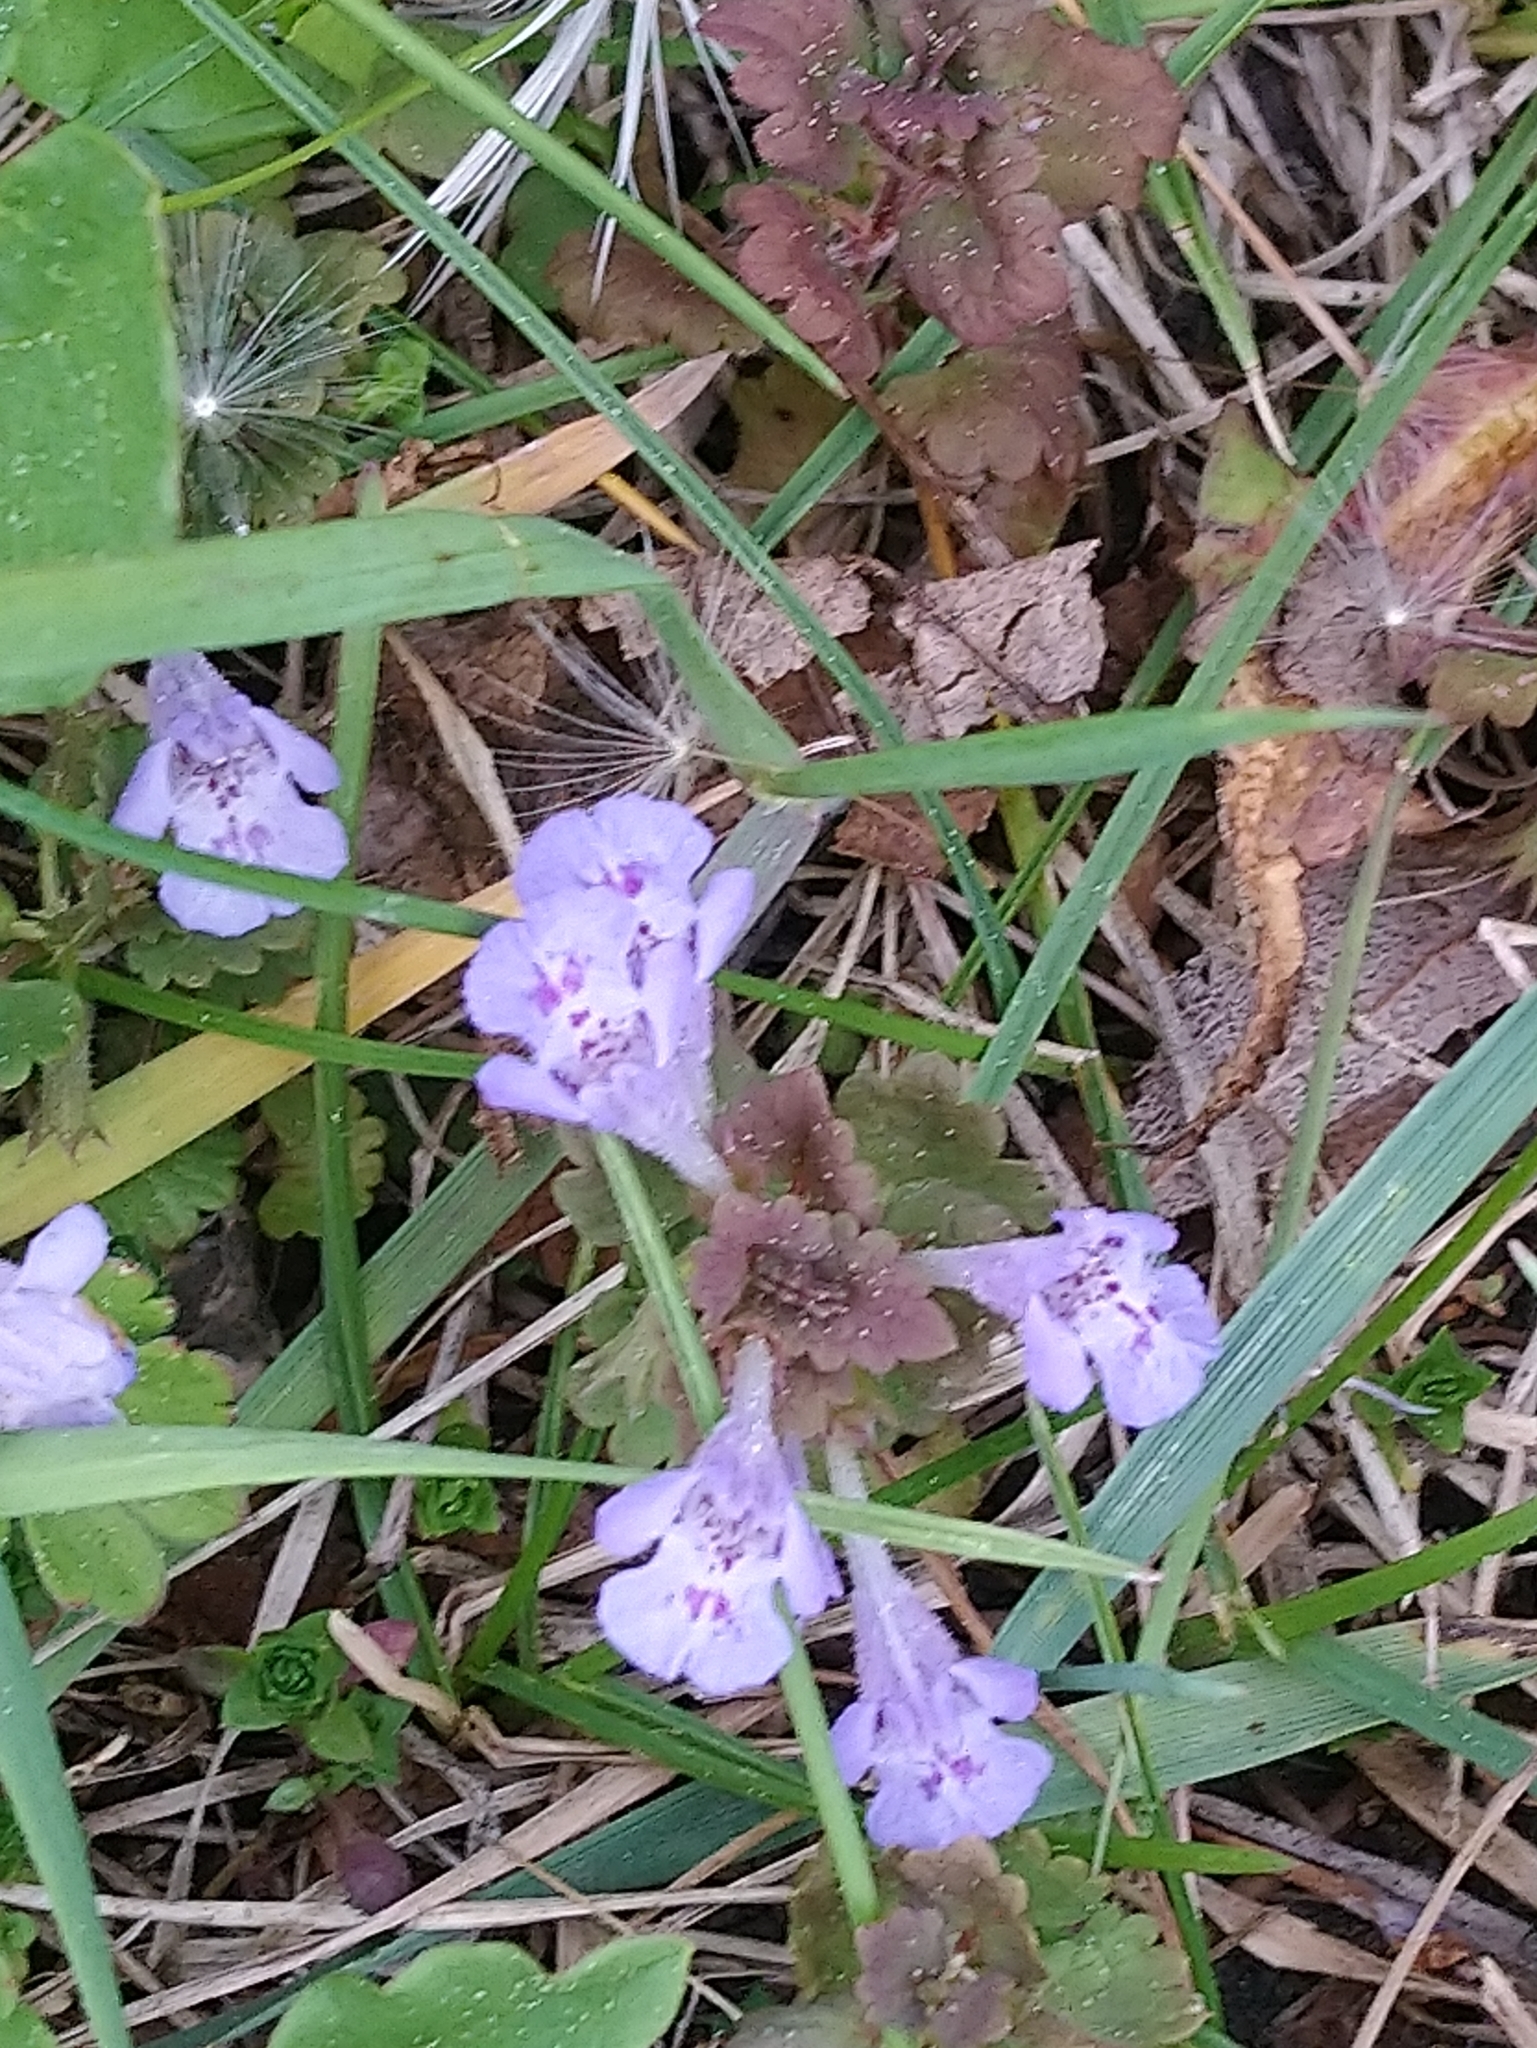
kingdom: Plantae
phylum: Tracheophyta
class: Magnoliopsida
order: Lamiales
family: Lamiaceae
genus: Glechoma
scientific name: Glechoma hederacea
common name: Ground ivy
